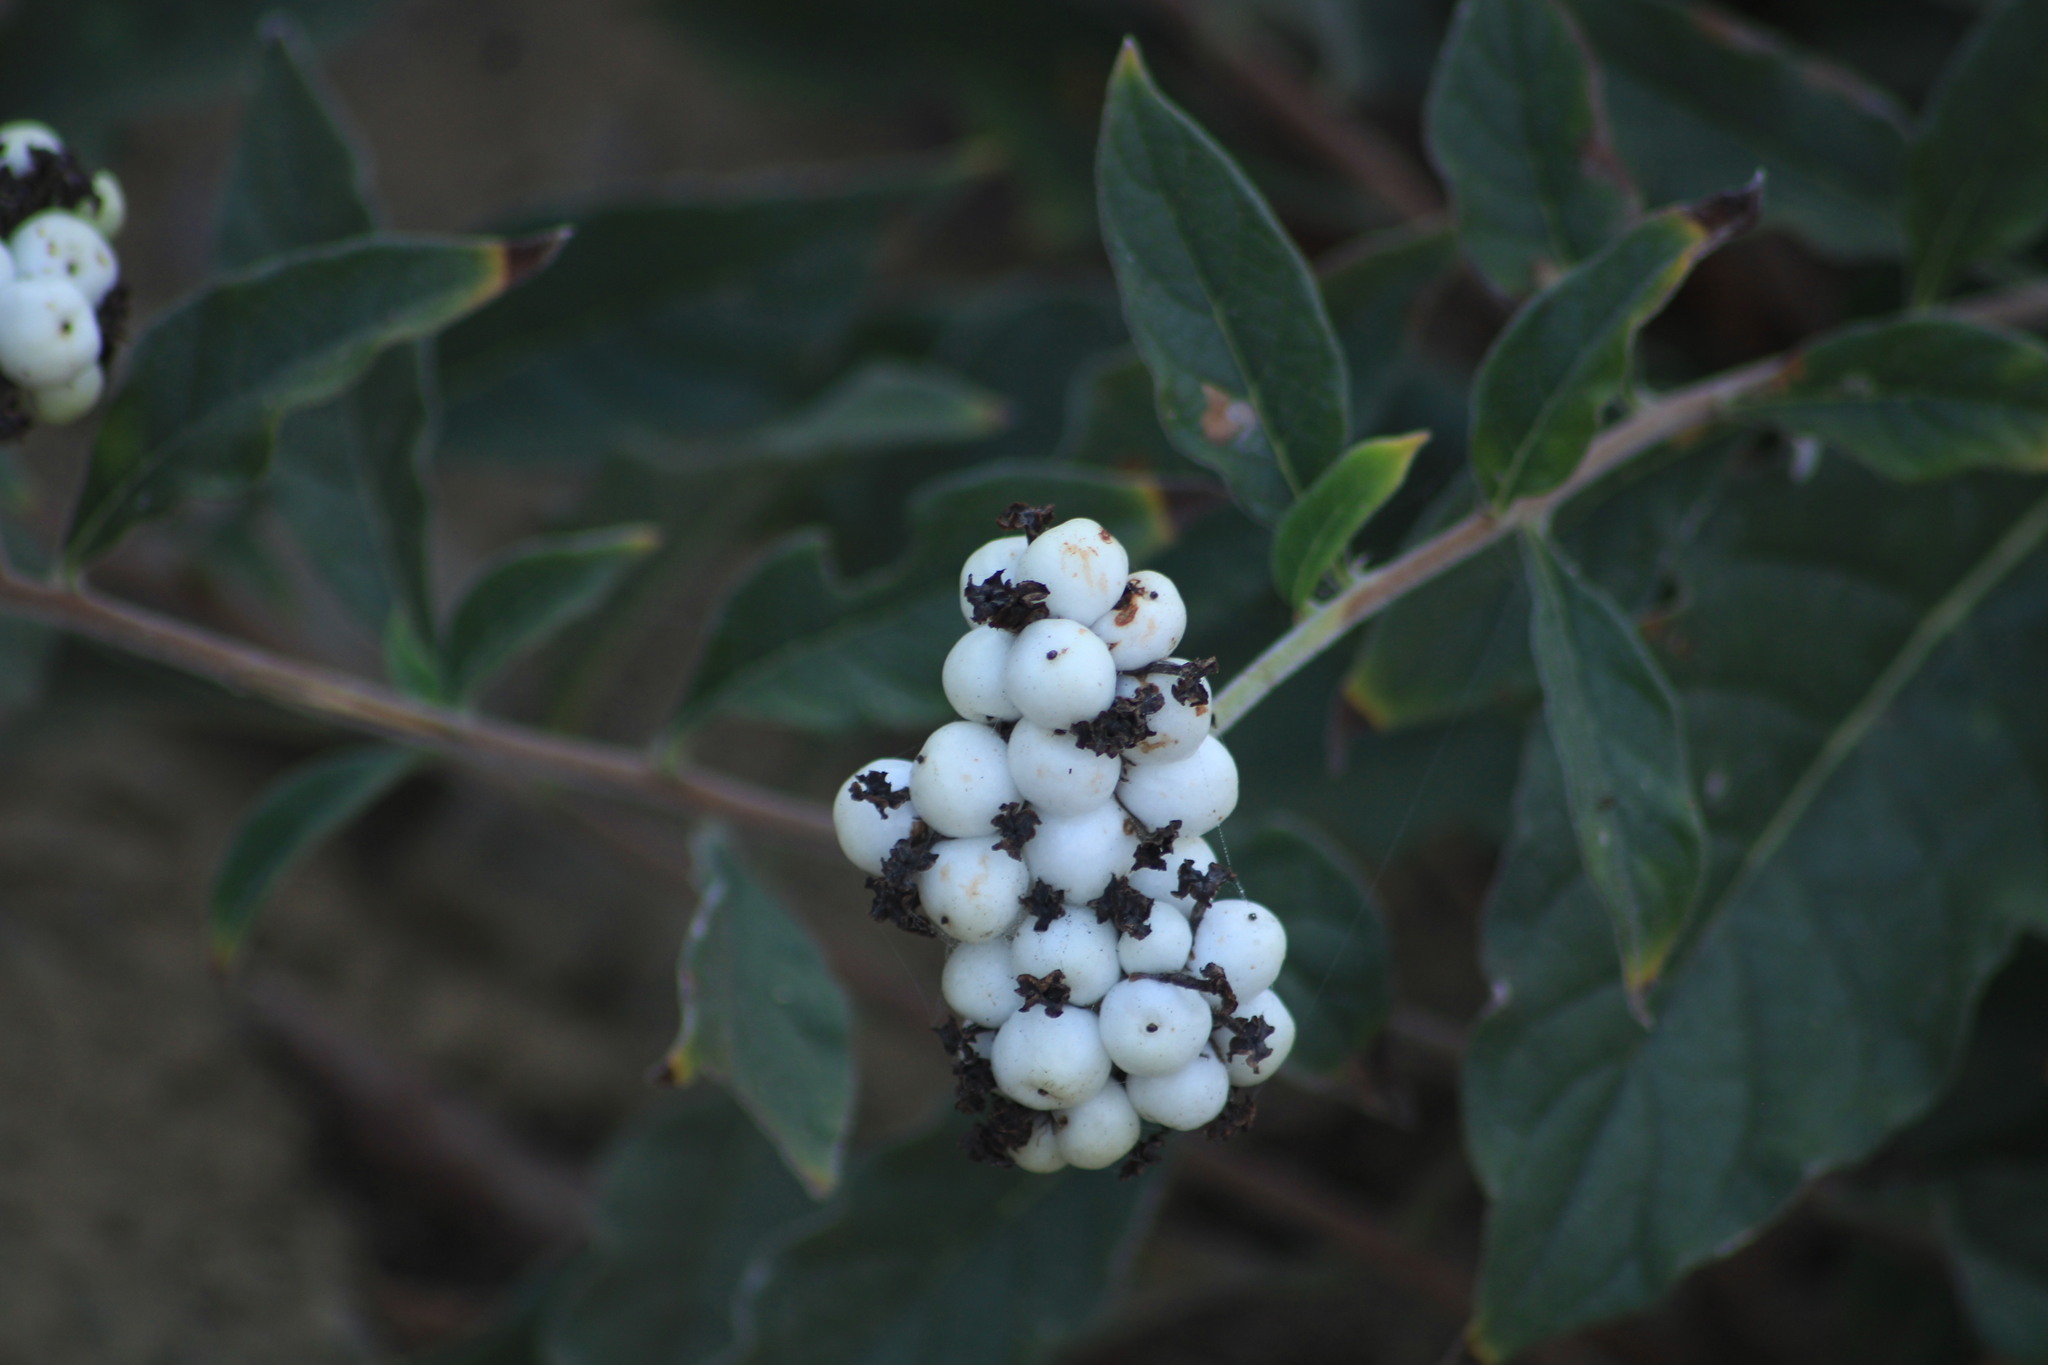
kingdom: Plantae
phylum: Tracheophyta
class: Magnoliopsida
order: Boraginales
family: Heliotropiaceae
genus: Tournefortia
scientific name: Tournefortia mutabilis
